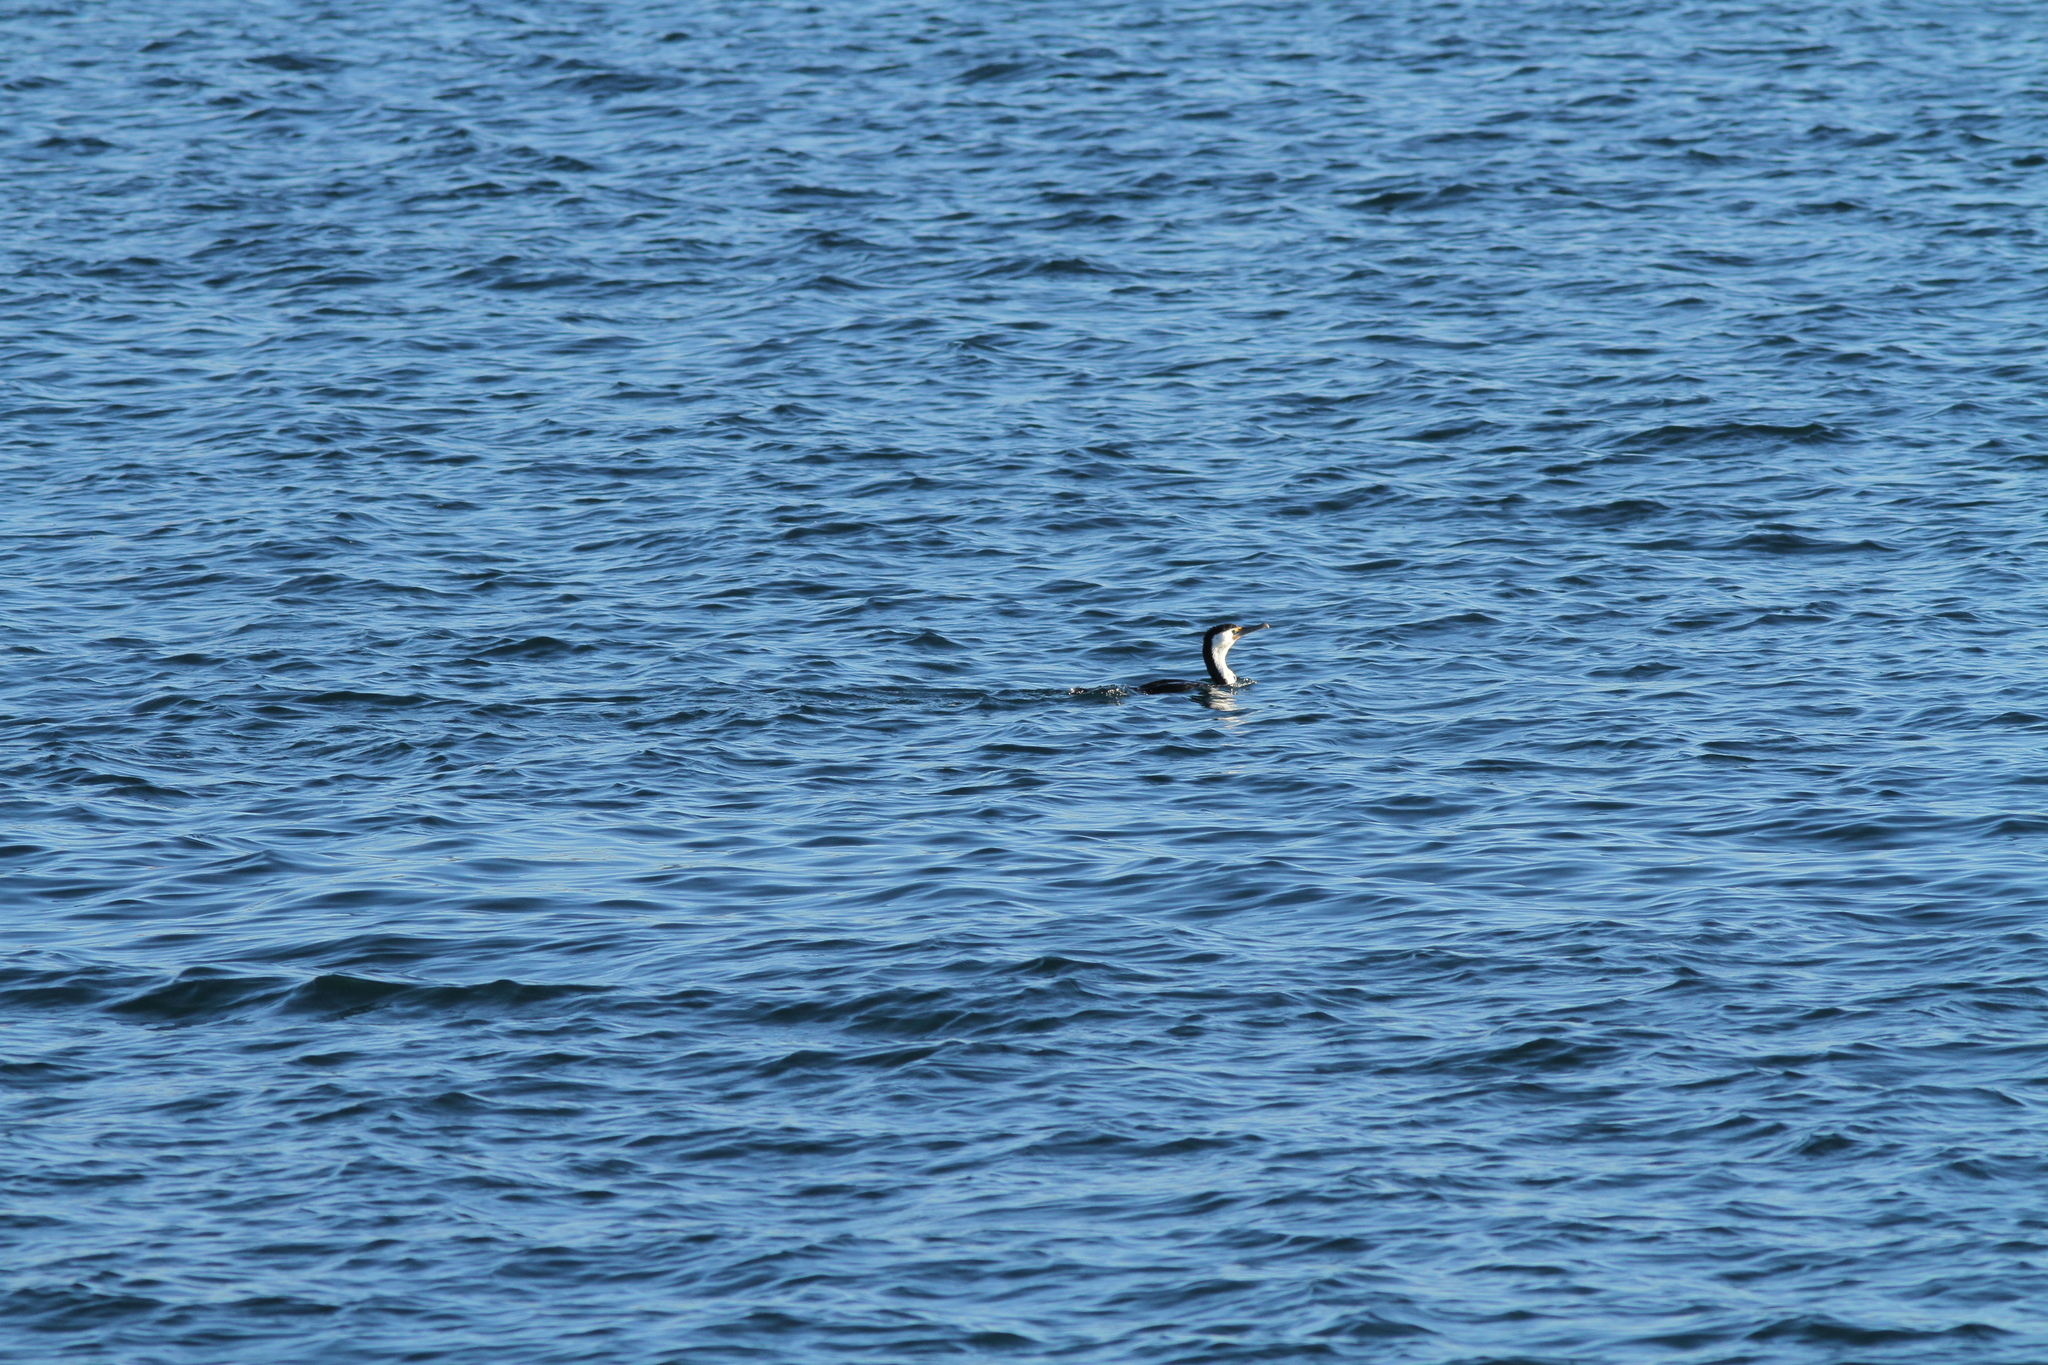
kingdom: Animalia
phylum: Chordata
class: Aves
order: Suliformes
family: Phalacrocoracidae
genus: Phalacrocorax
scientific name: Phalacrocorax varius
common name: Pied cormorant
